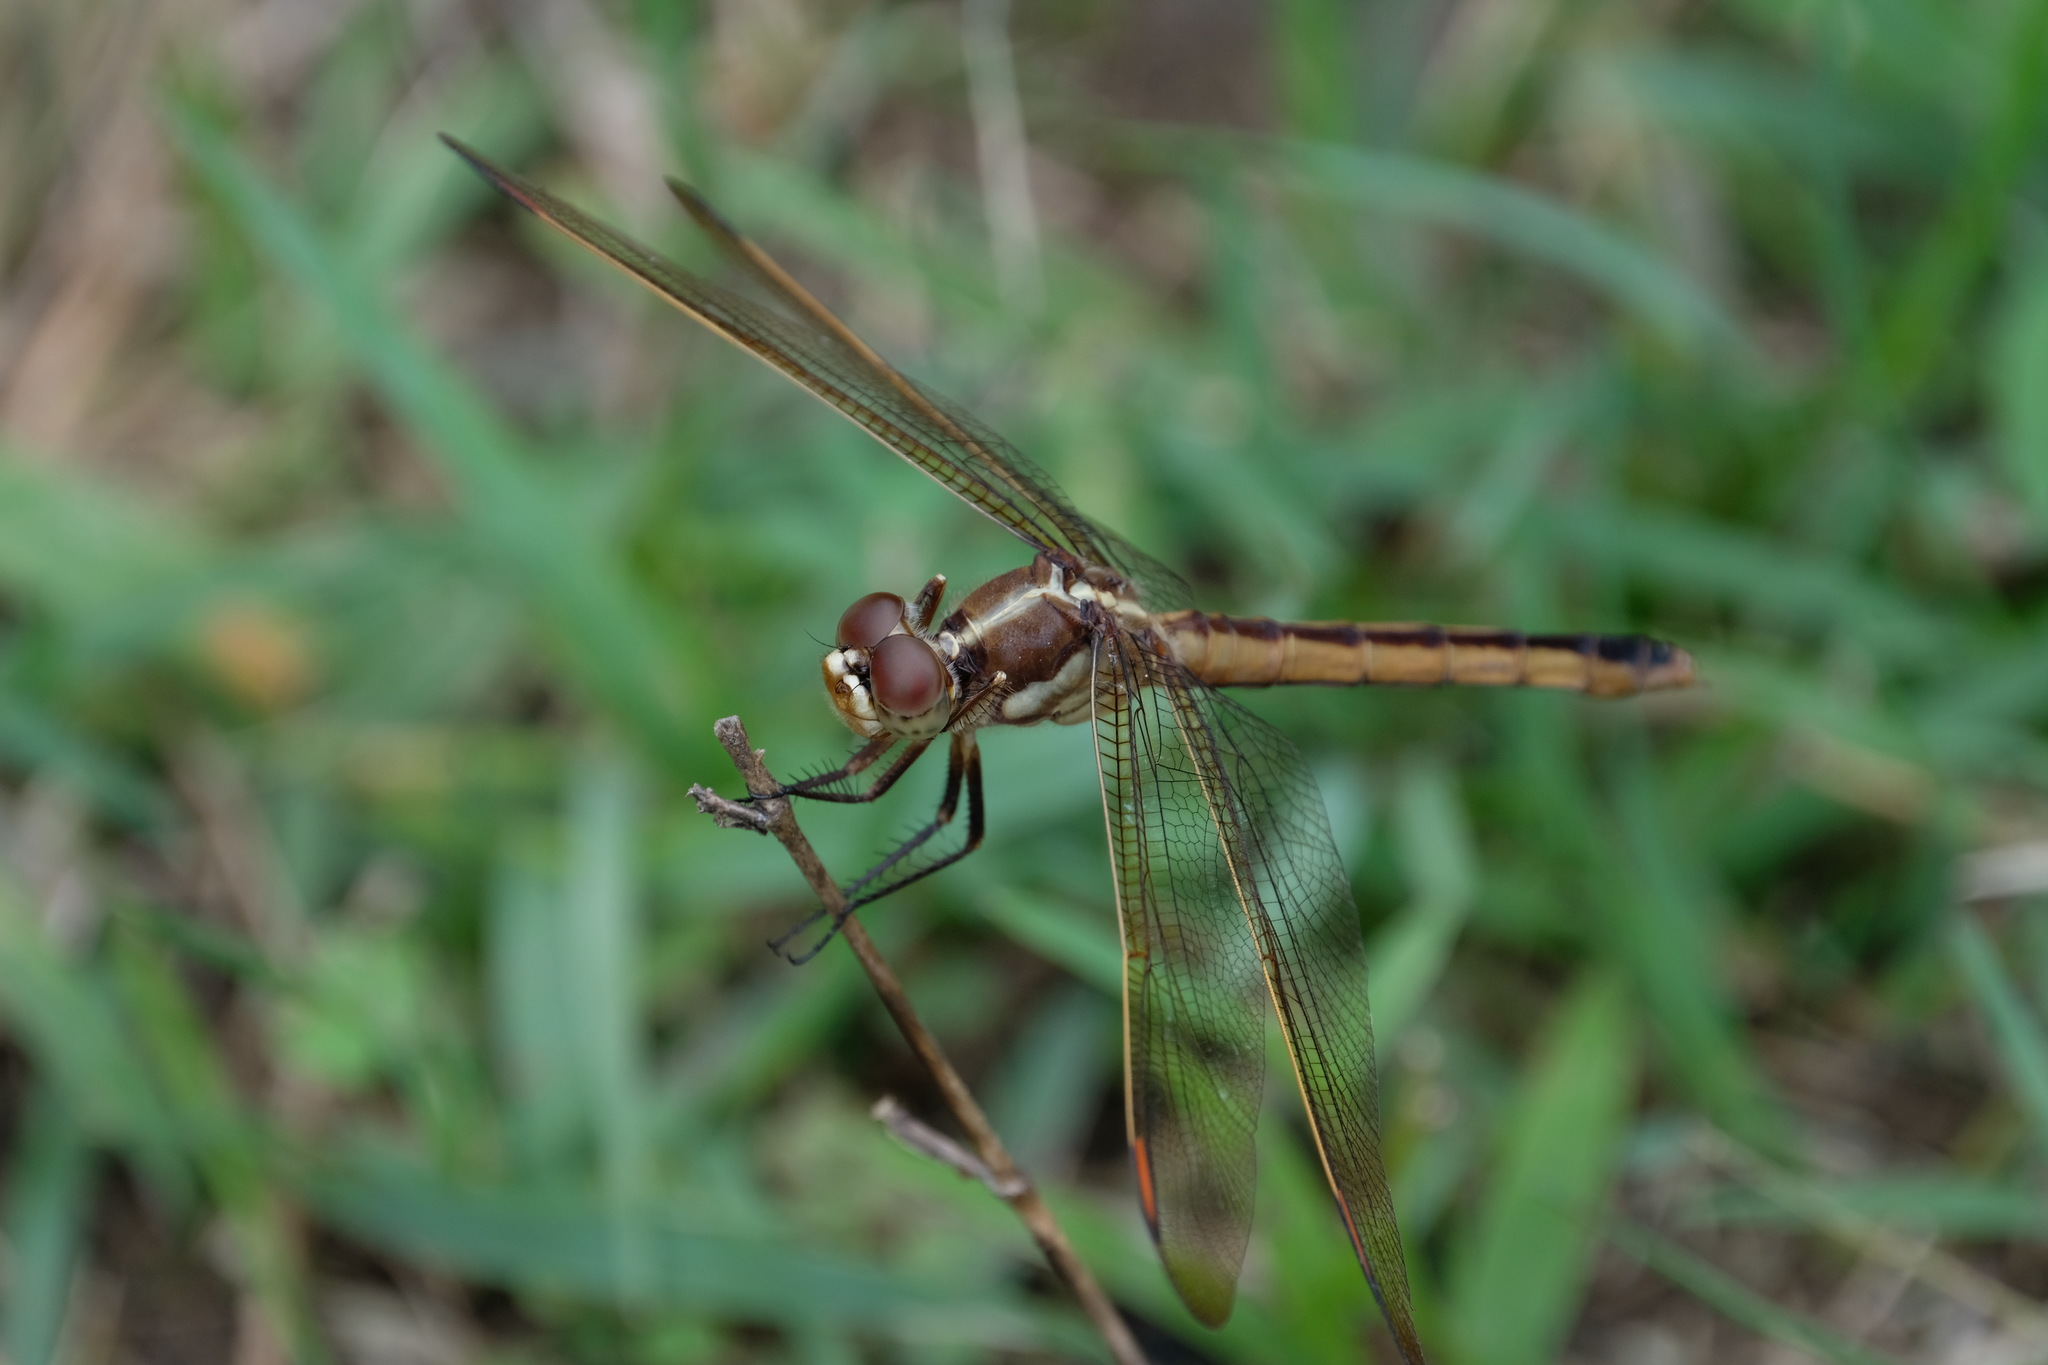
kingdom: Animalia
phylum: Arthropoda
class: Insecta
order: Odonata
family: Libellulidae
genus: Libellula
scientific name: Libellula auripennis
